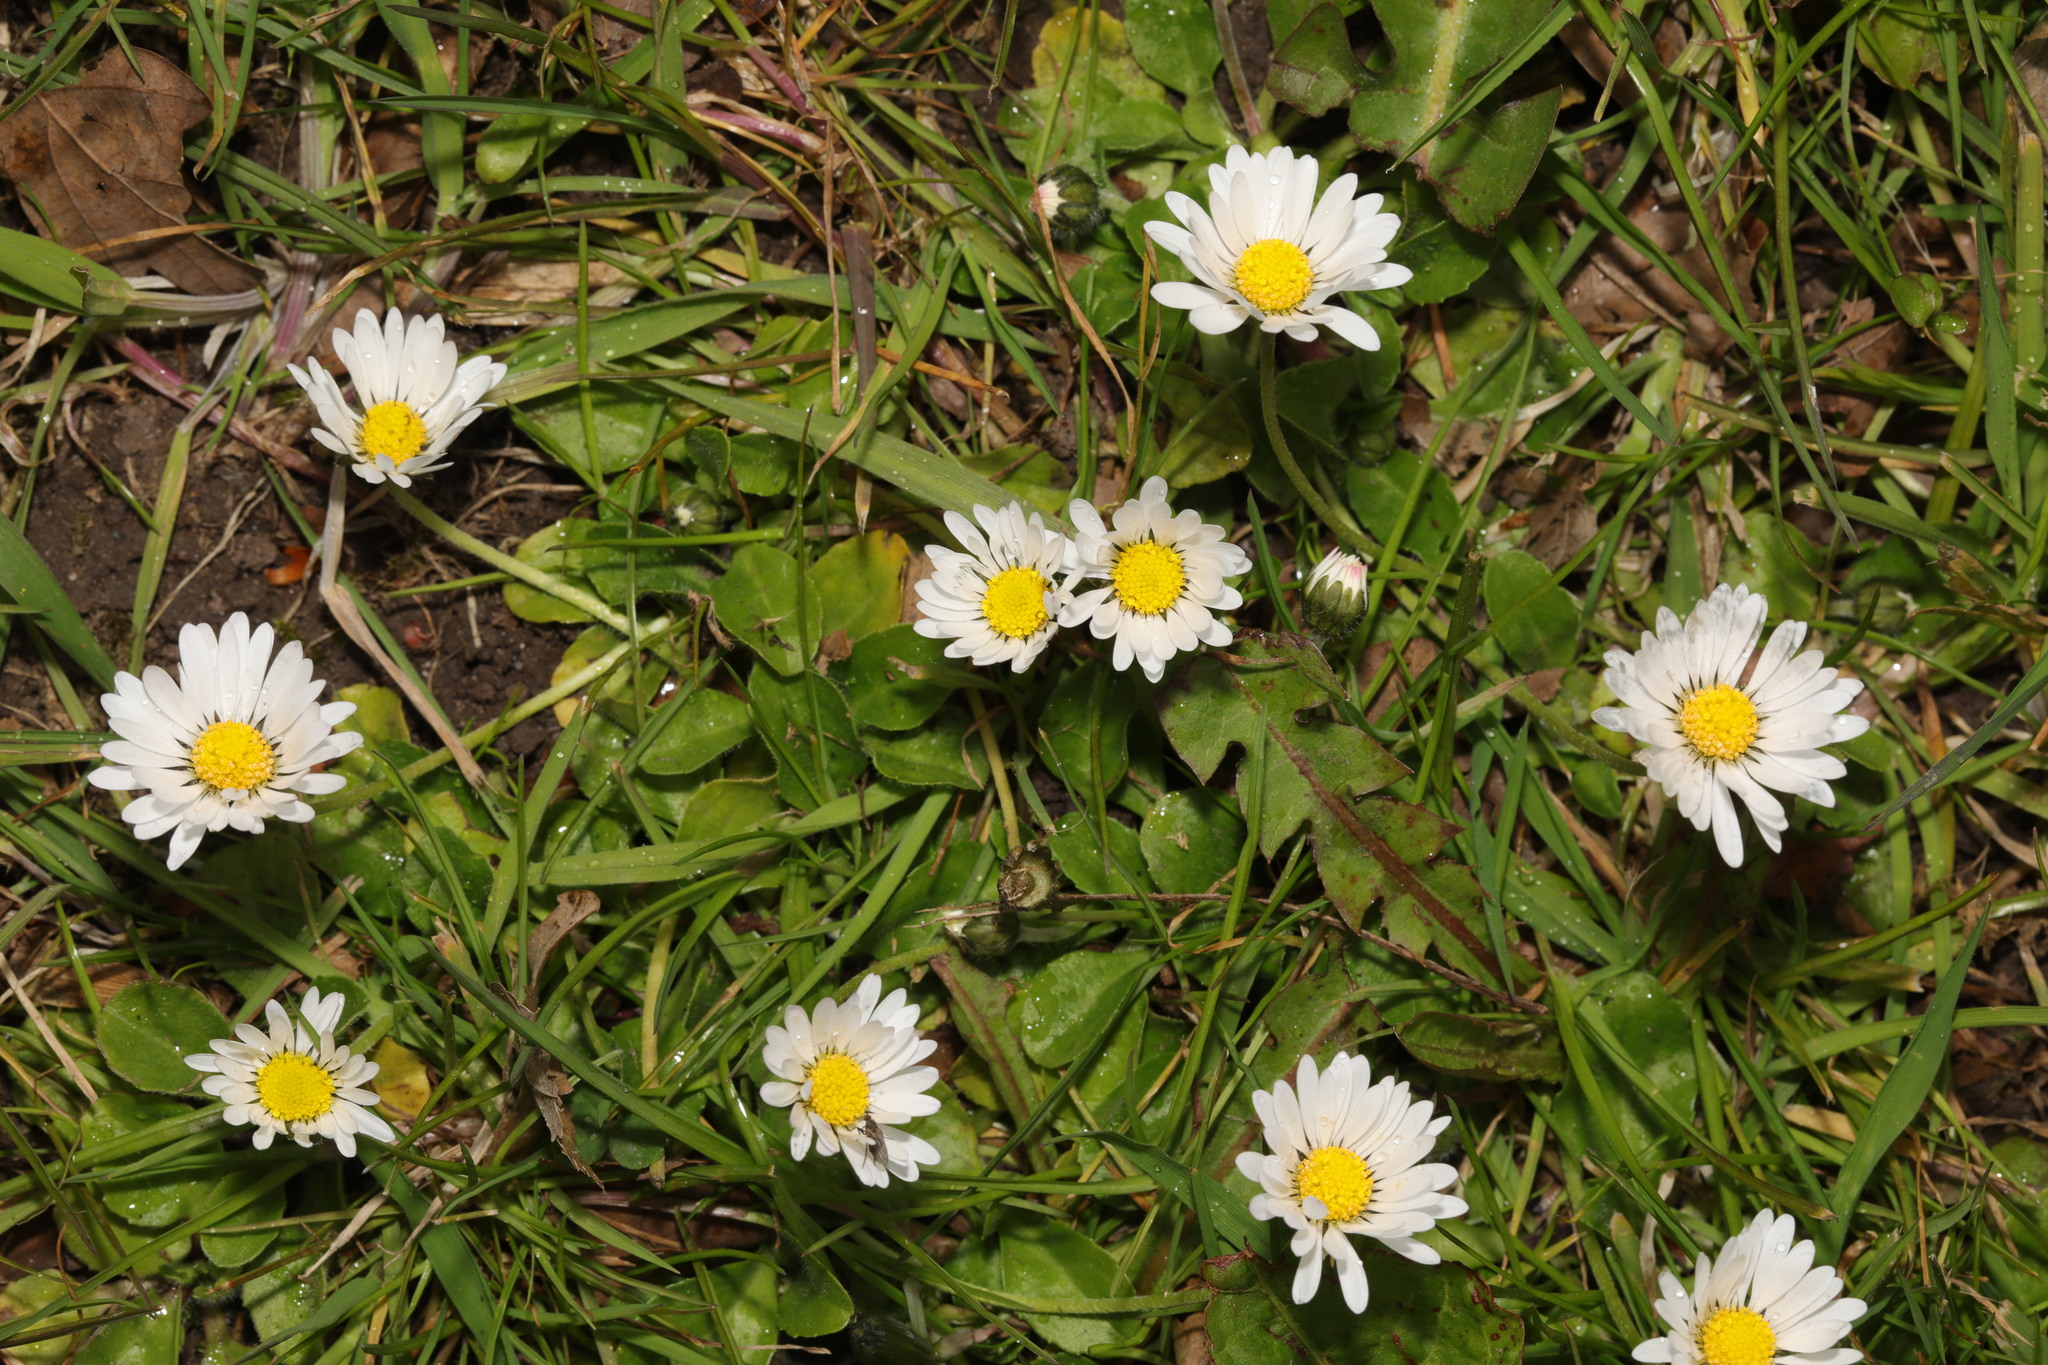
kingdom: Plantae
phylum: Tracheophyta
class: Magnoliopsida
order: Asterales
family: Asteraceae
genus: Bellis
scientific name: Bellis perennis
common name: Lawndaisy
